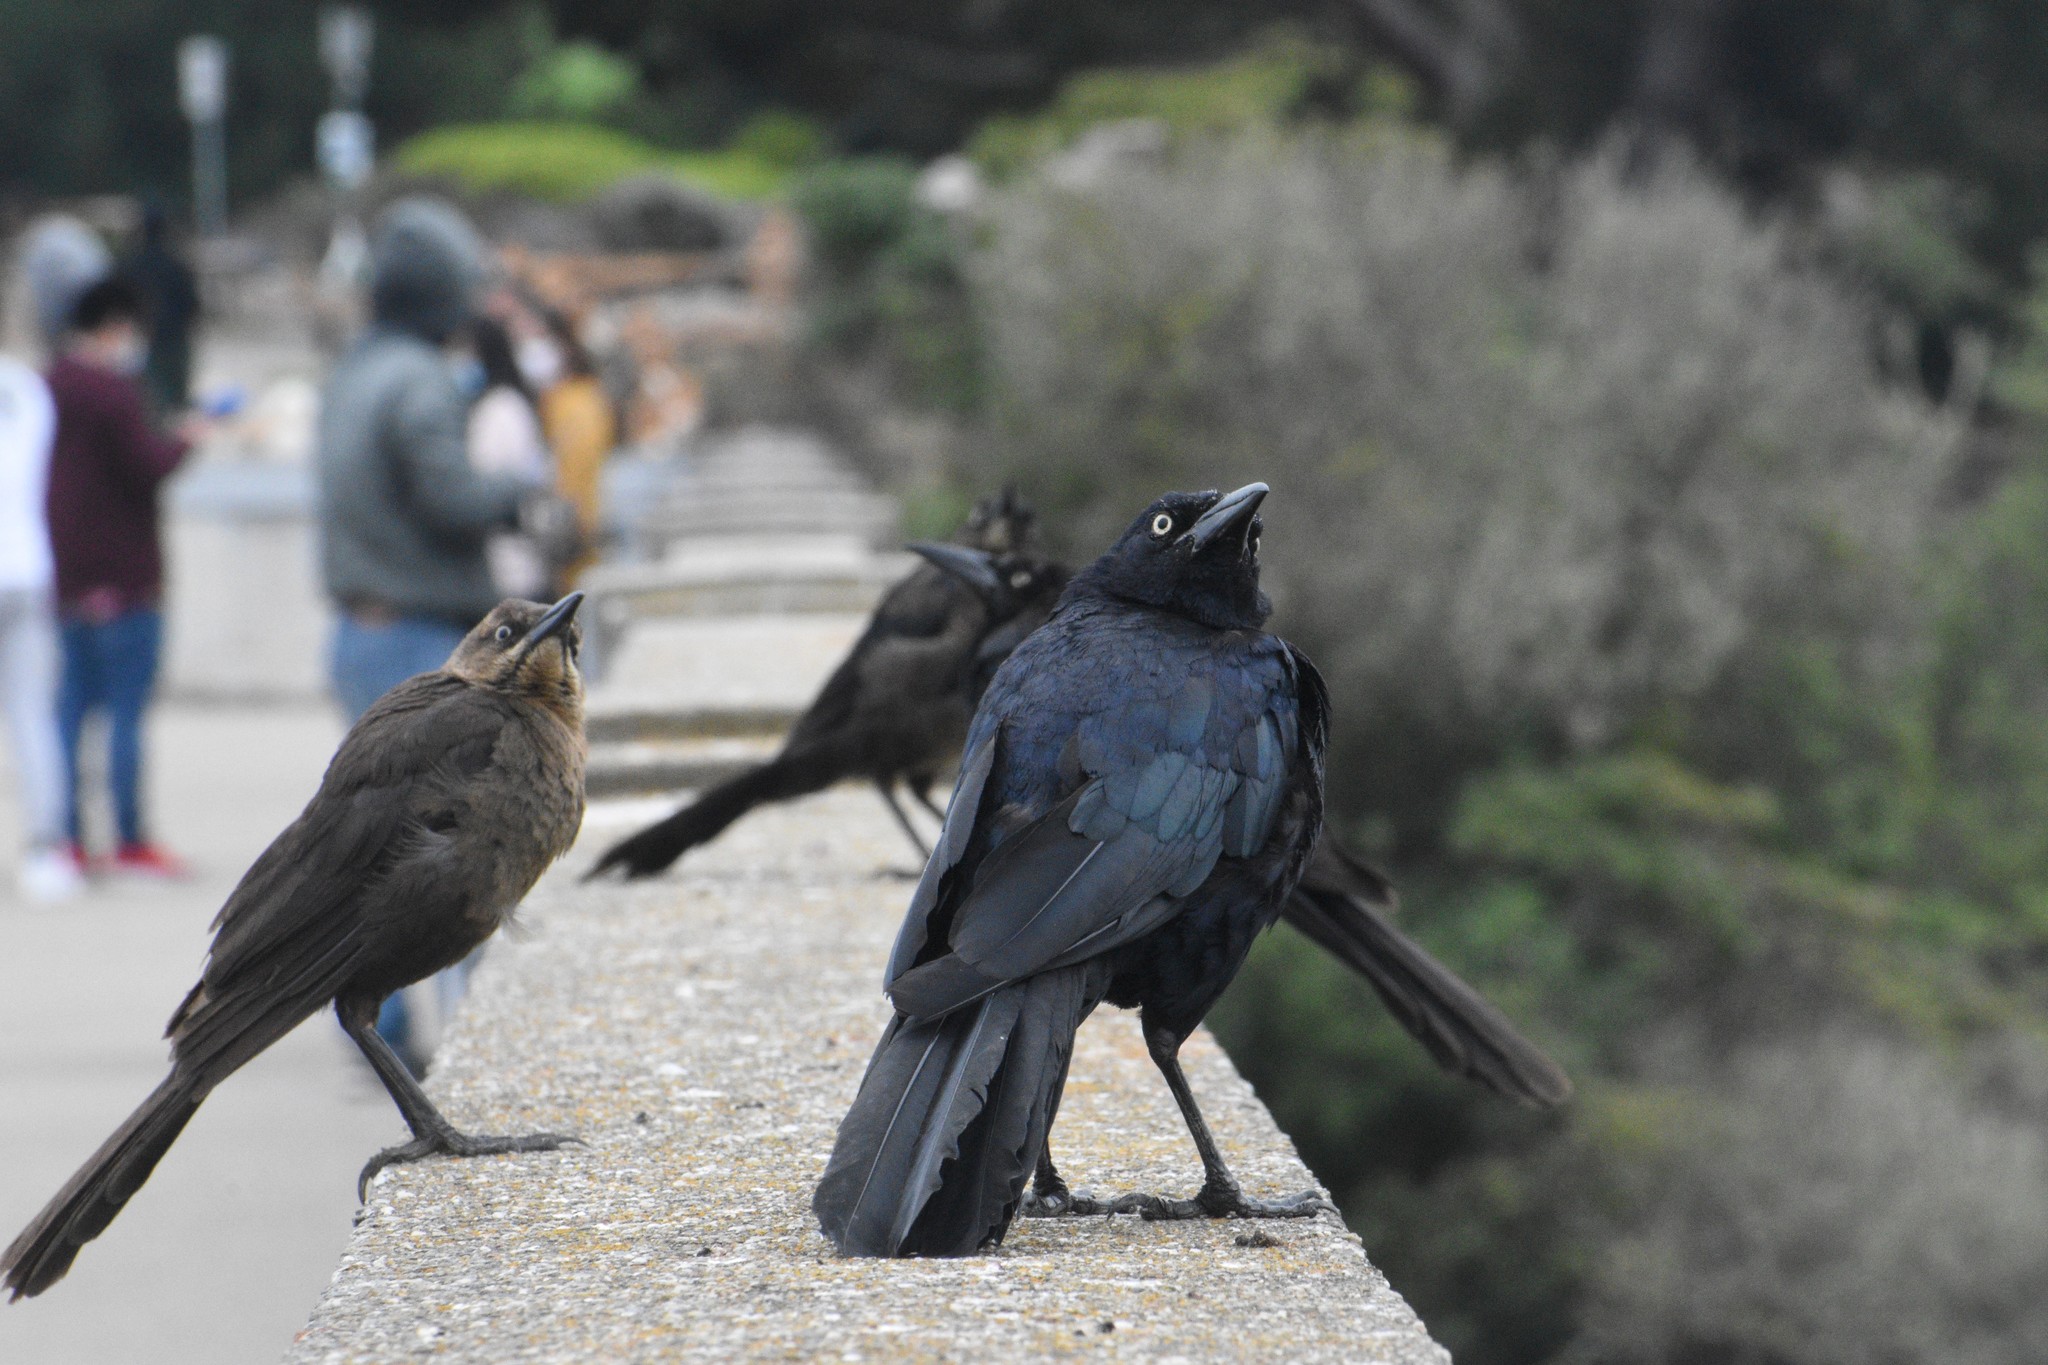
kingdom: Animalia
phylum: Chordata
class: Aves
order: Passeriformes
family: Icteridae
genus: Quiscalus
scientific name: Quiscalus mexicanus
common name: Great-tailed grackle
